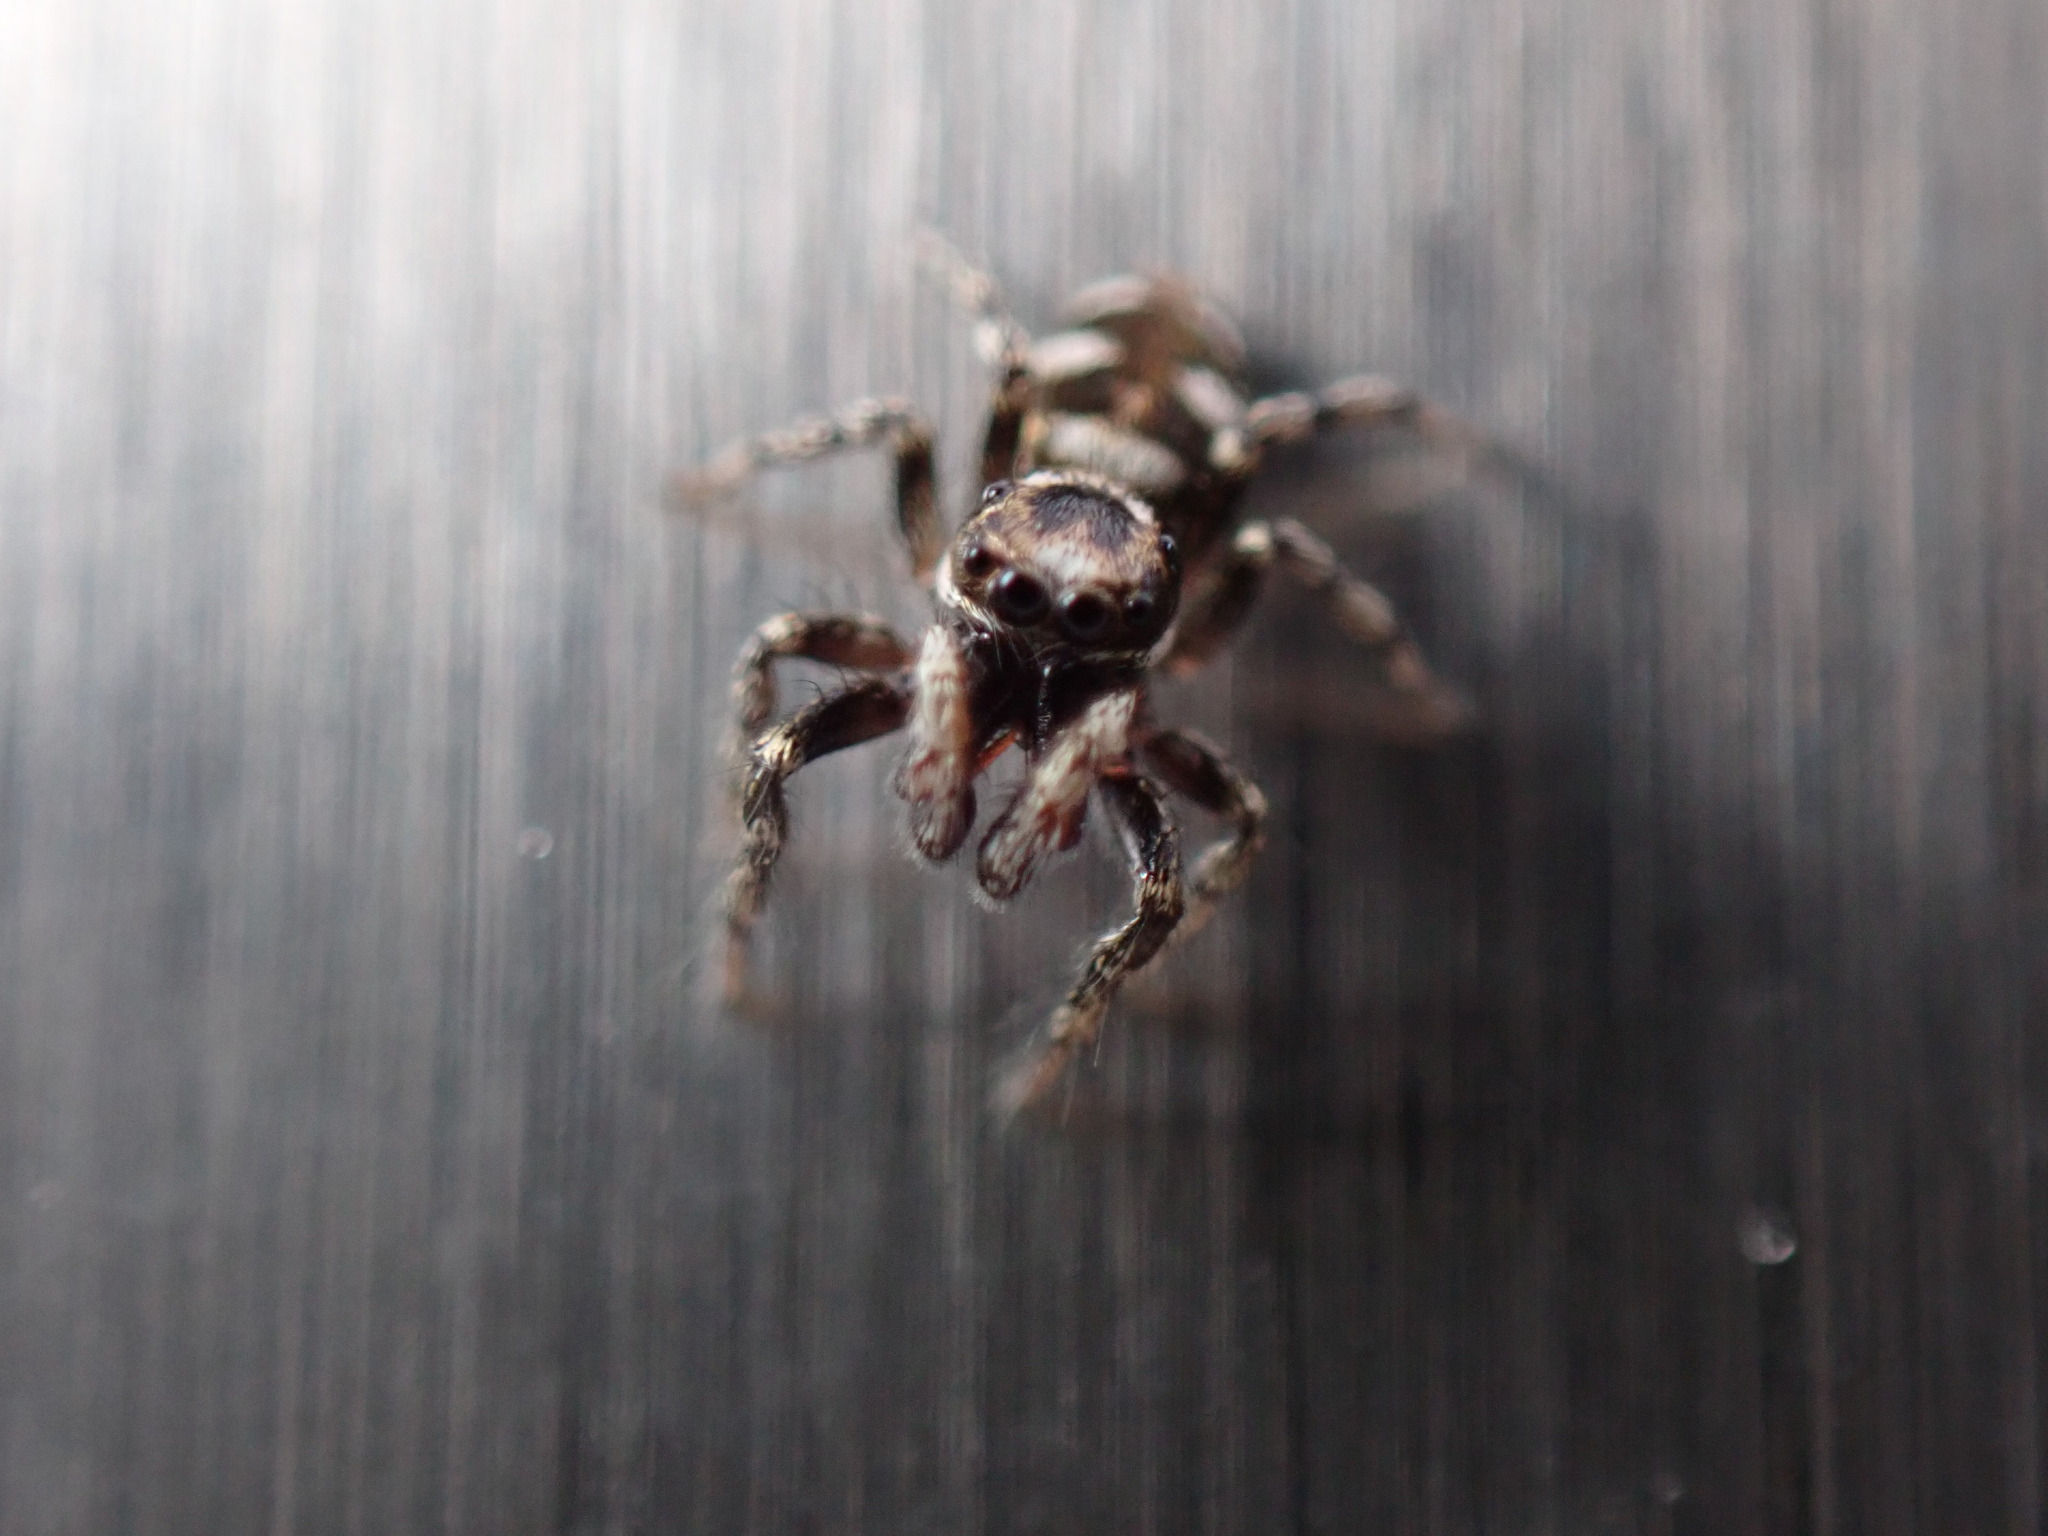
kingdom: Animalia
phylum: Arthropoda
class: Arachnida
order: Araneae
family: Salticidae
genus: Salticus
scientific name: Salticus scenicus
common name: Zebra jumper
